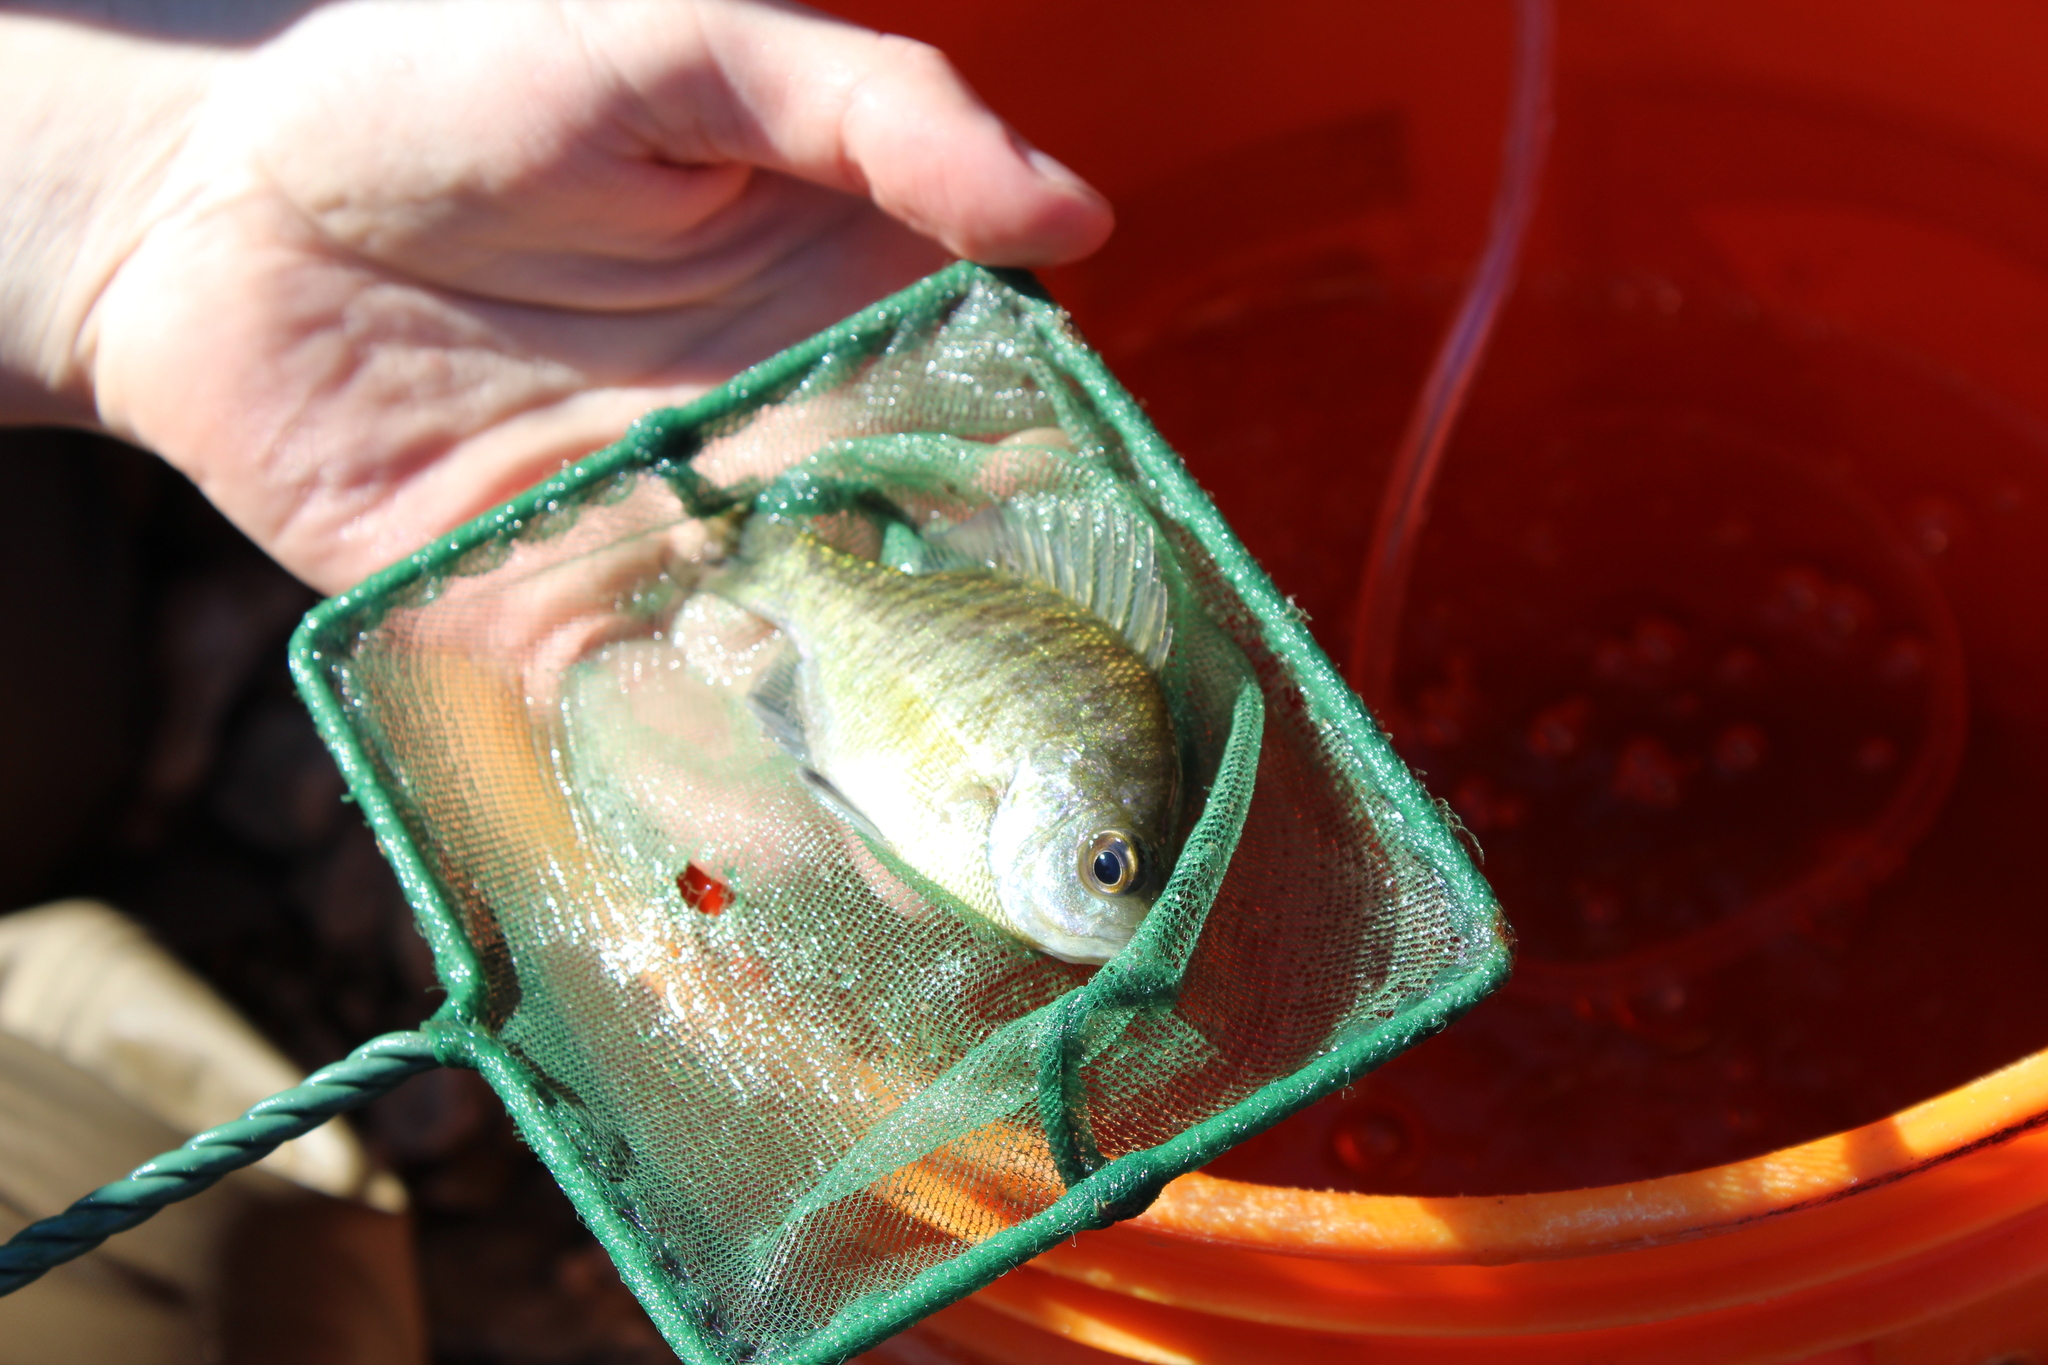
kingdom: Animalia
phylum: Chordata
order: Perciformes
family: Centrarchidae
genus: Lepomis
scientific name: Lepomis macrochirus
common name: Bluegill
